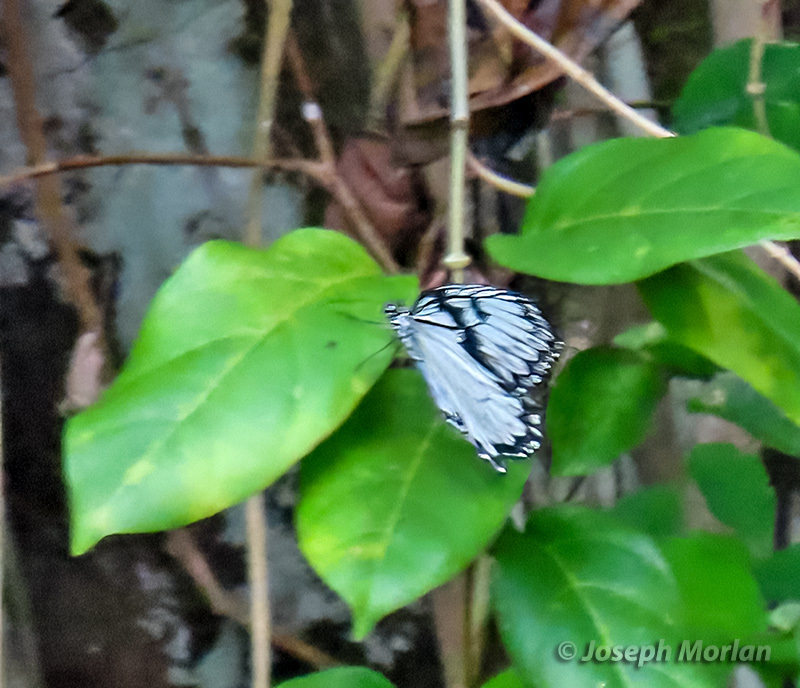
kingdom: Animalia
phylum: Arthropoda
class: Insecta
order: Lepidoptera
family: Nymphalidae
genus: Idea
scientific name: Idea durvillei
